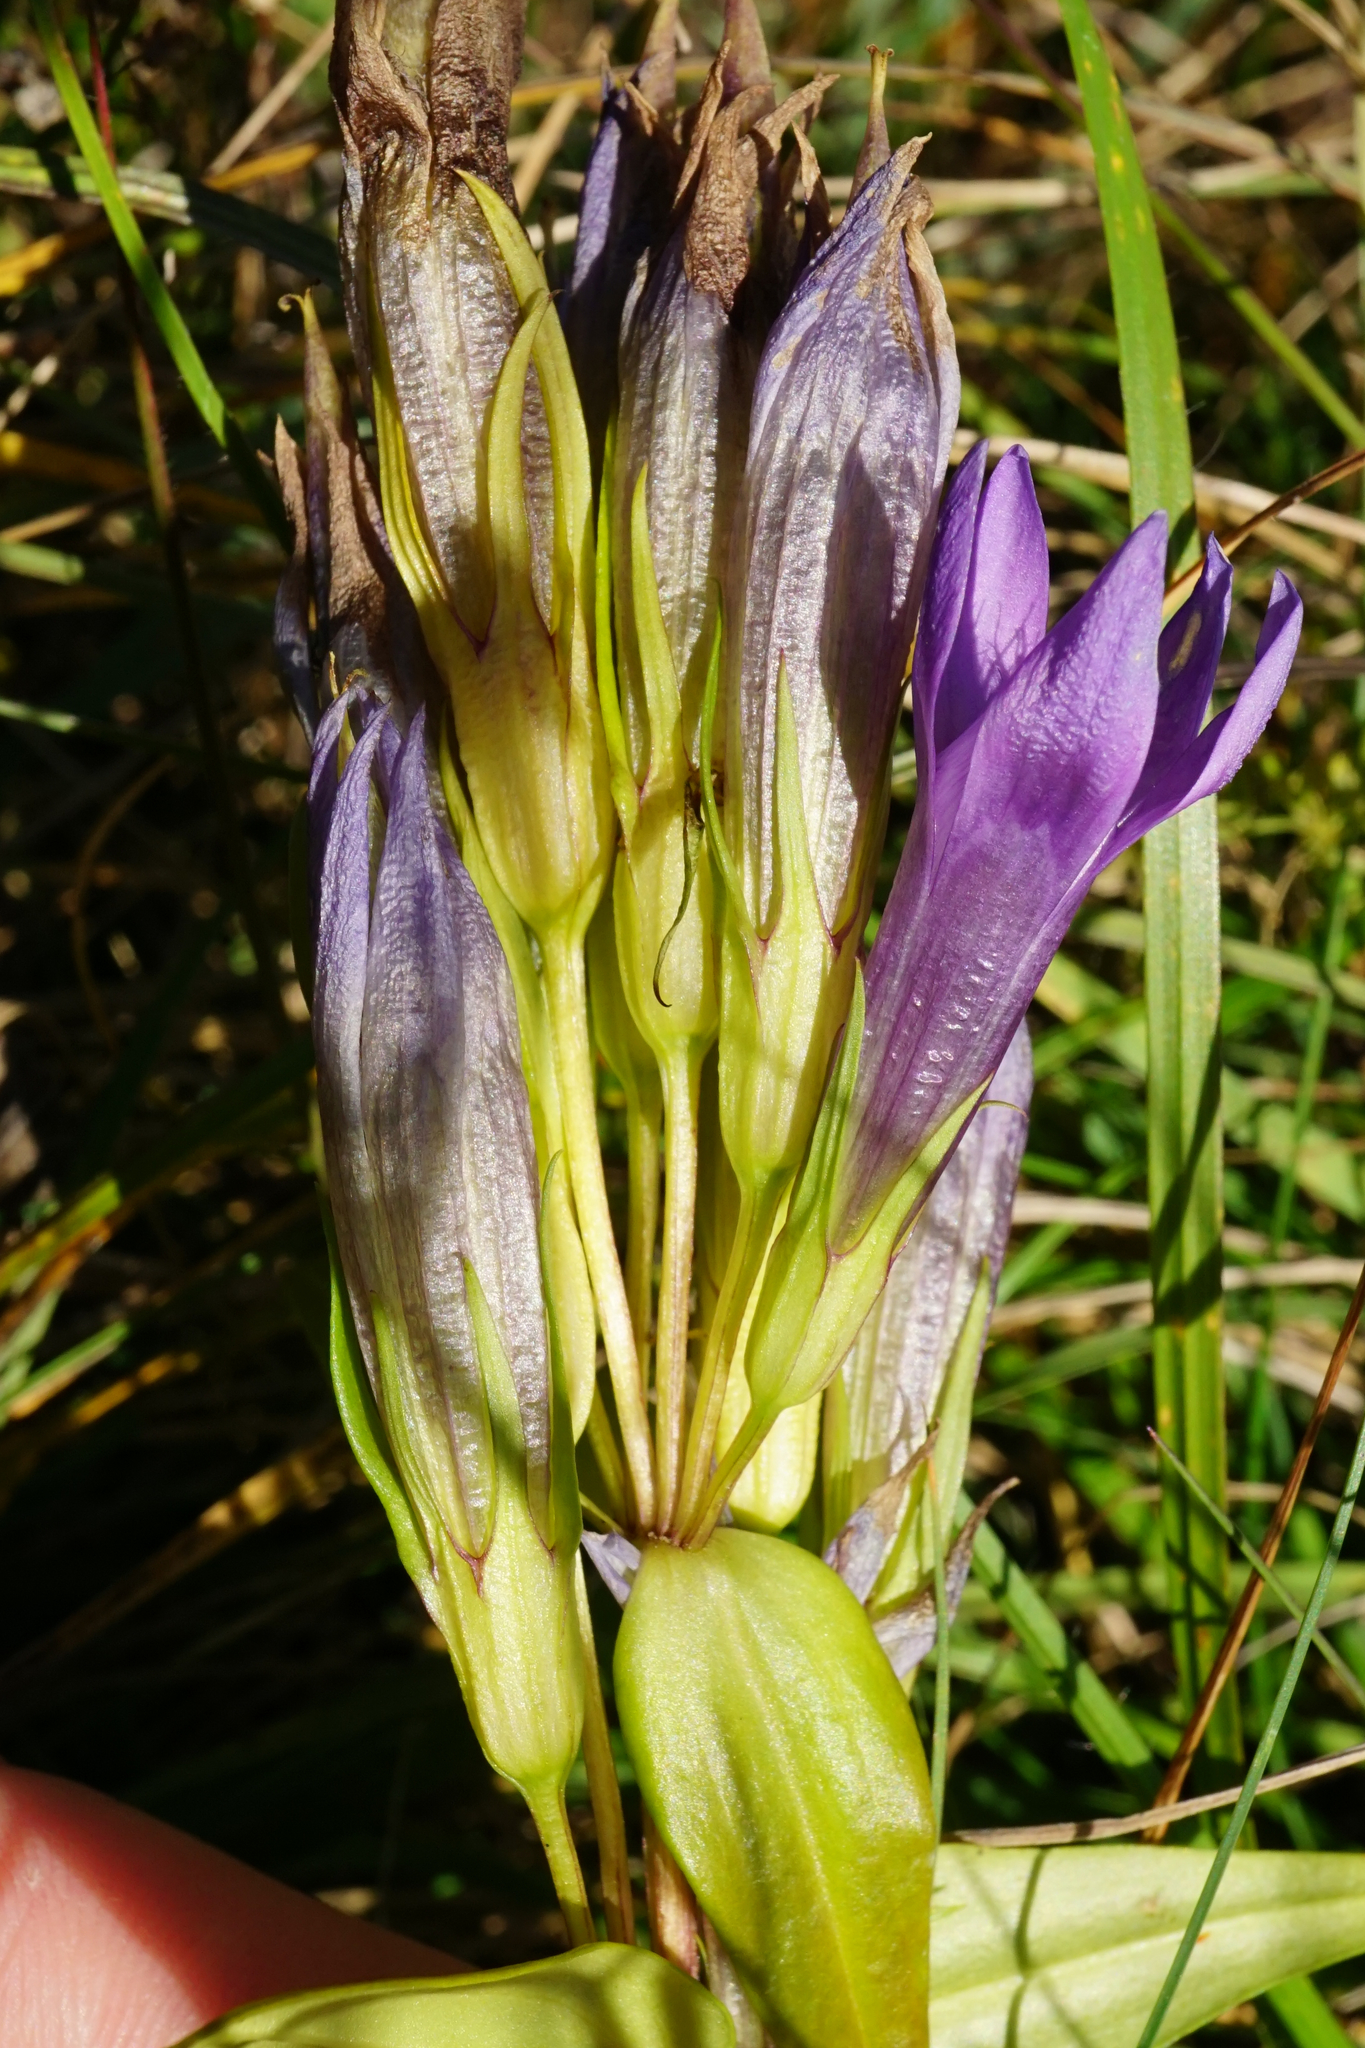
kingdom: Plantae
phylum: Tracheophyta
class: Magnoliopsida
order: Gentianales
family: Gentianaceae
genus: Gentianella
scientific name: Gentianella austriaca
